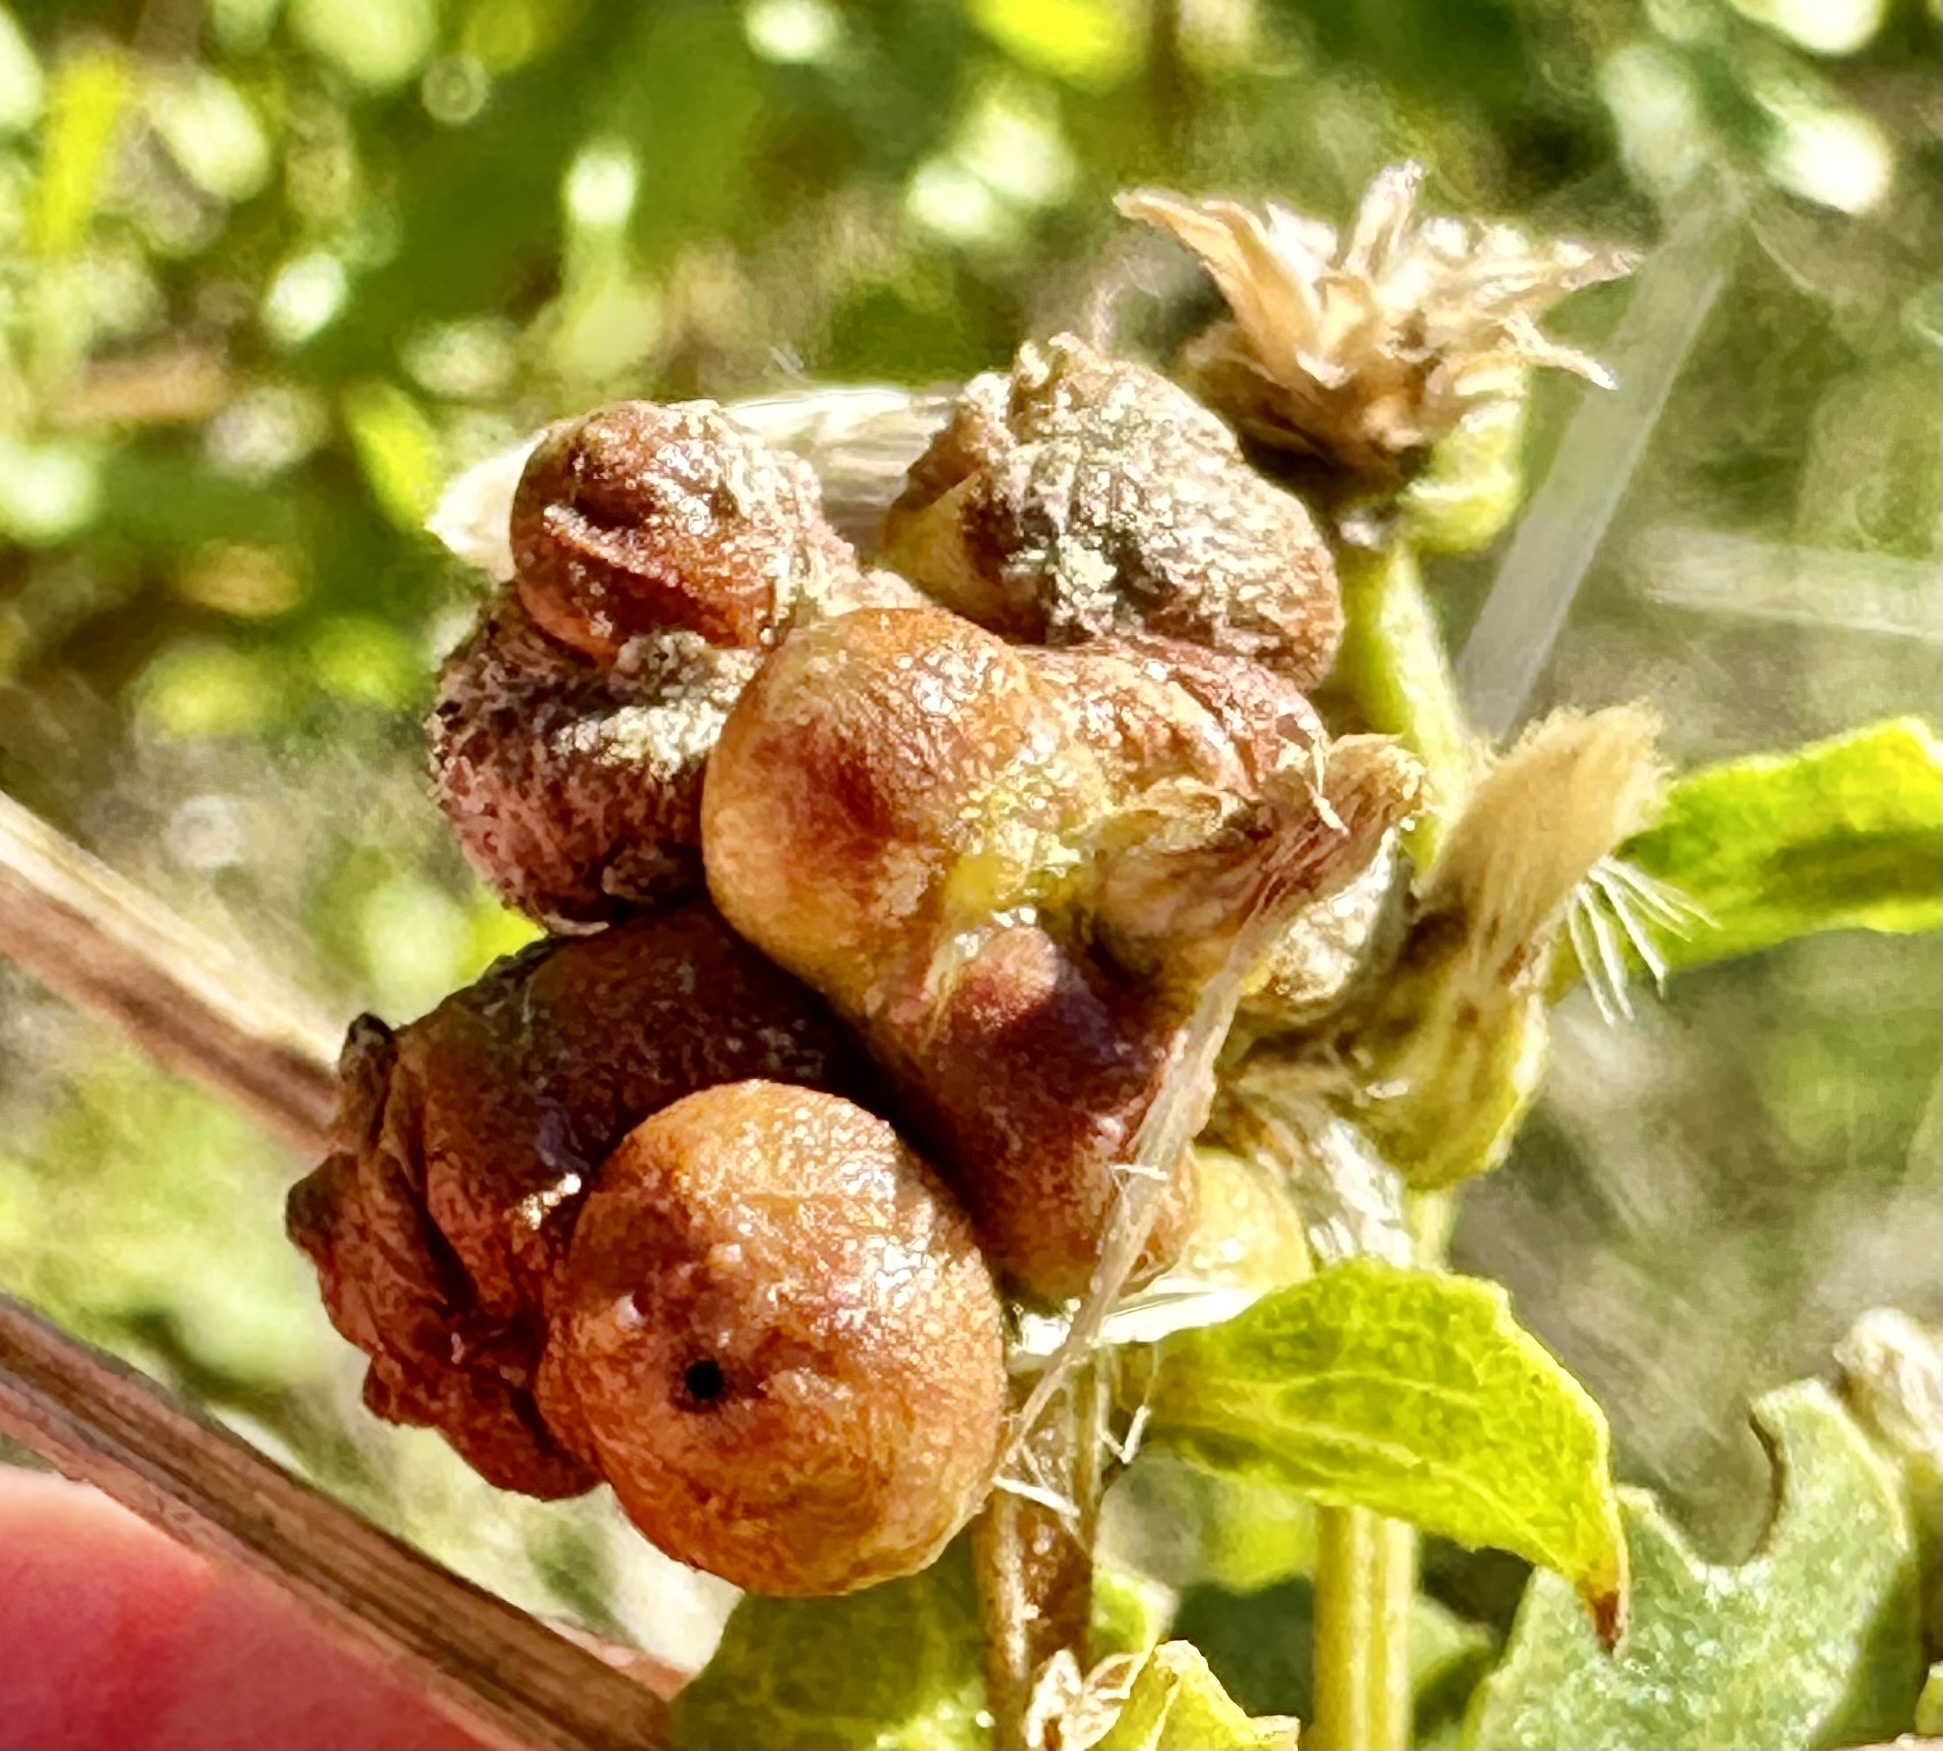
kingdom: Animalia
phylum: Arthropoda
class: Insecta
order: Diptera
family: Cecidomyiidae
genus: Rhopalomyia
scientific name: Rhopalomyia californica
